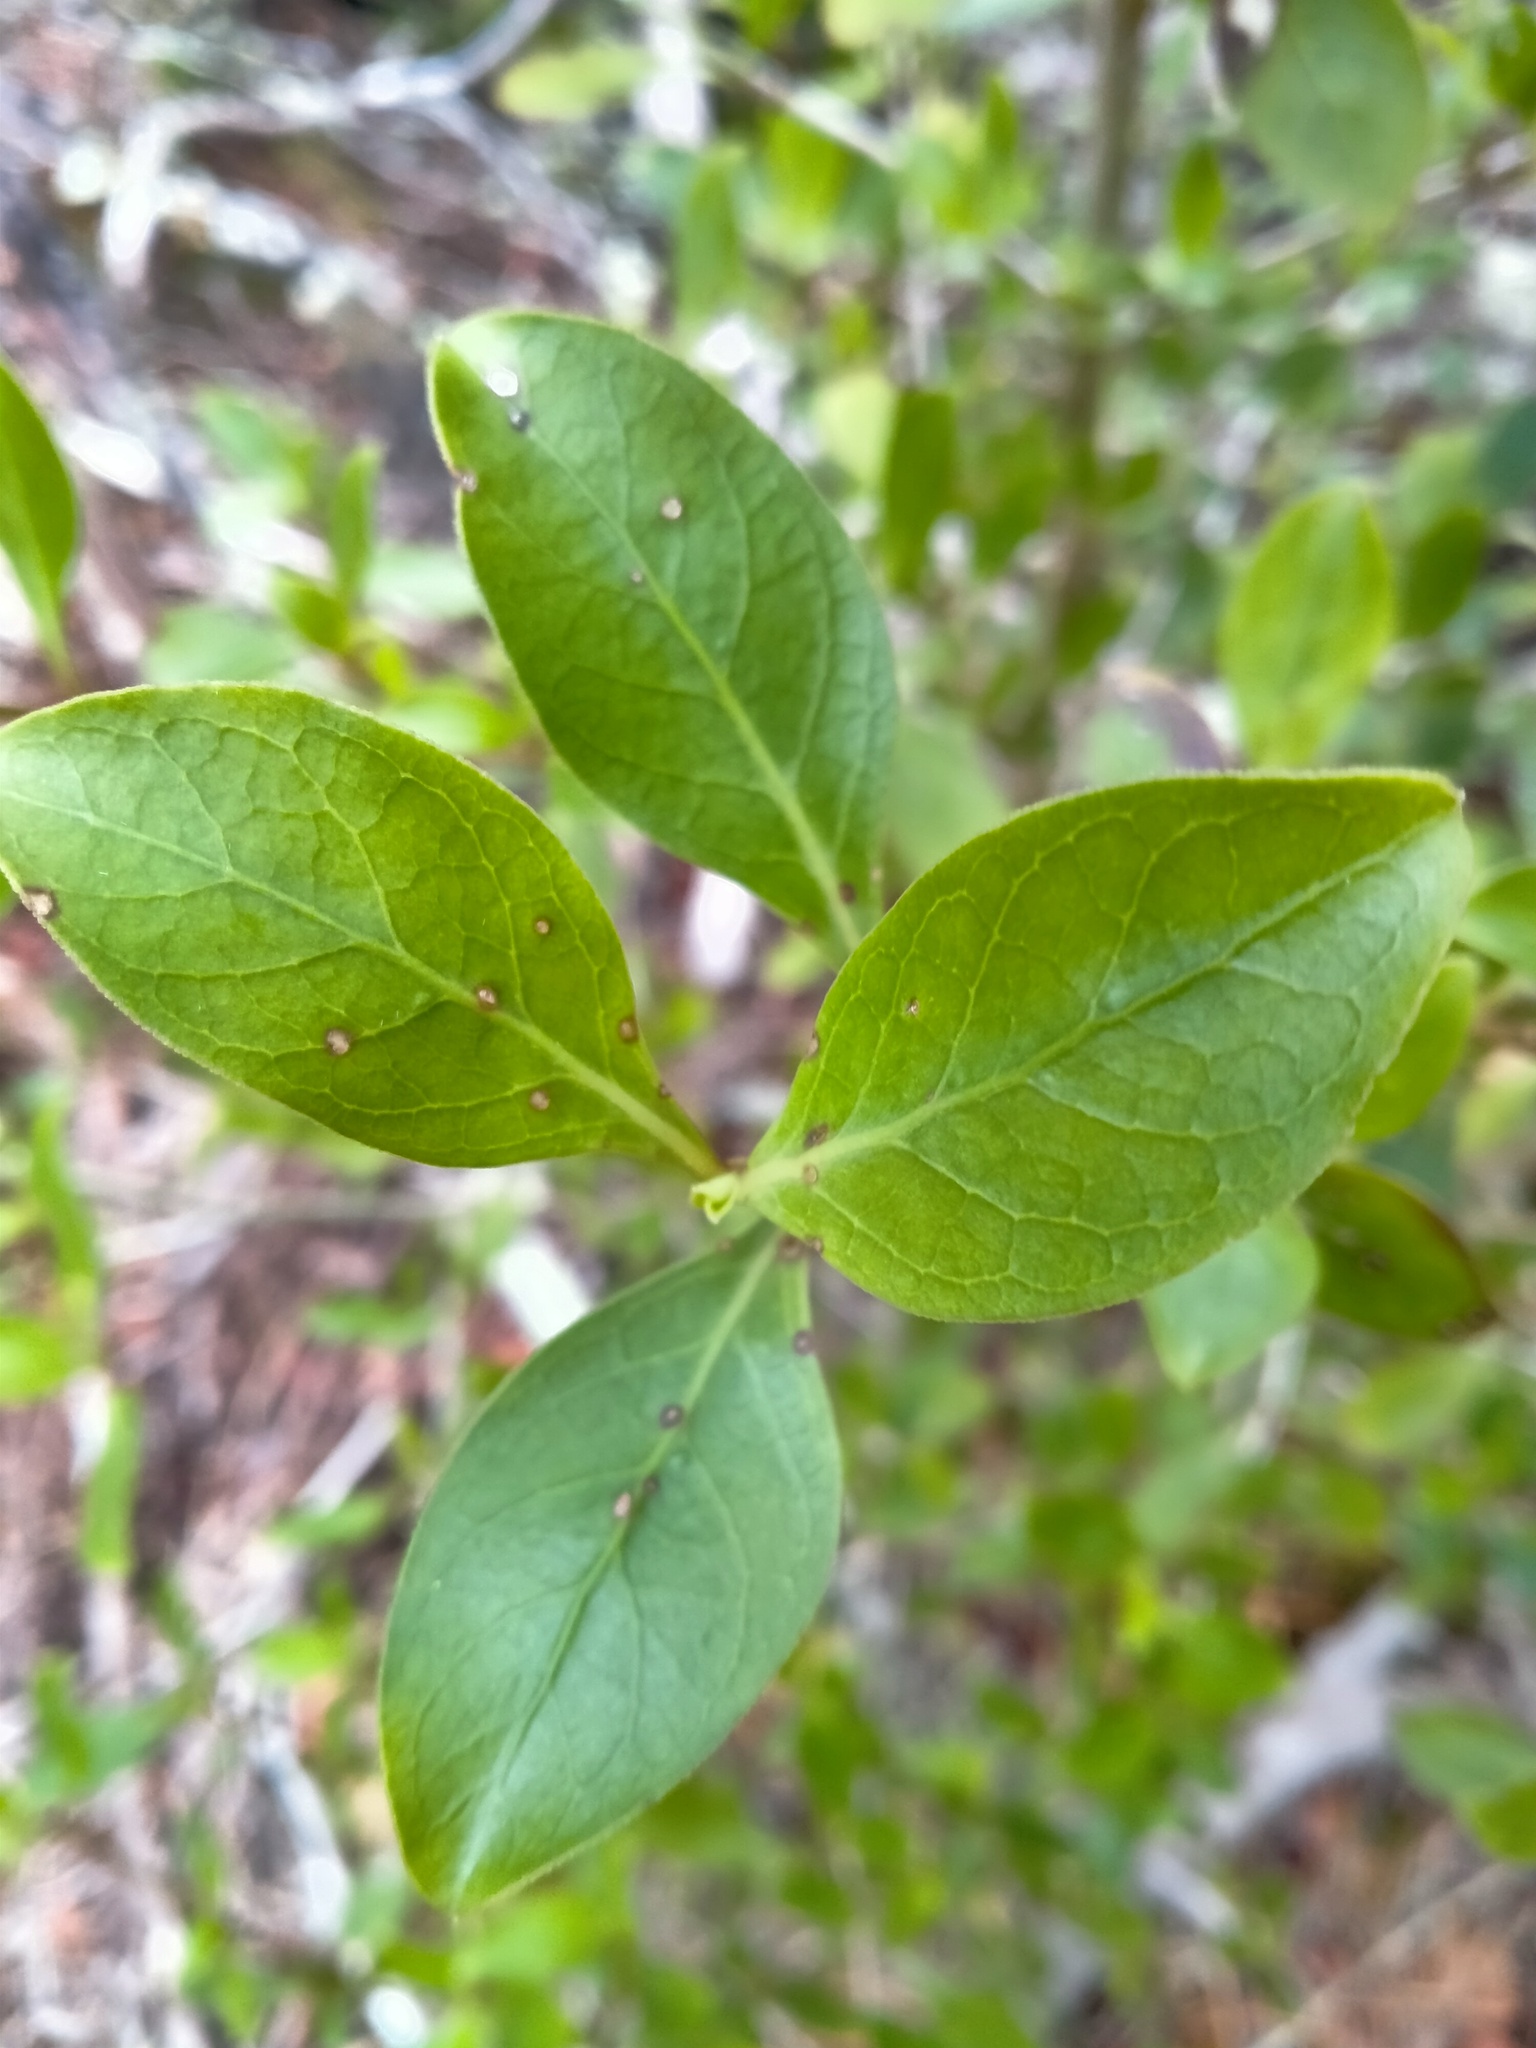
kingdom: Plantae
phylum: Tracheophyta
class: Magnoliopsida
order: Gentianales
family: Rubiaceae
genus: Coprosma
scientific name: Coprosma foetidissima
